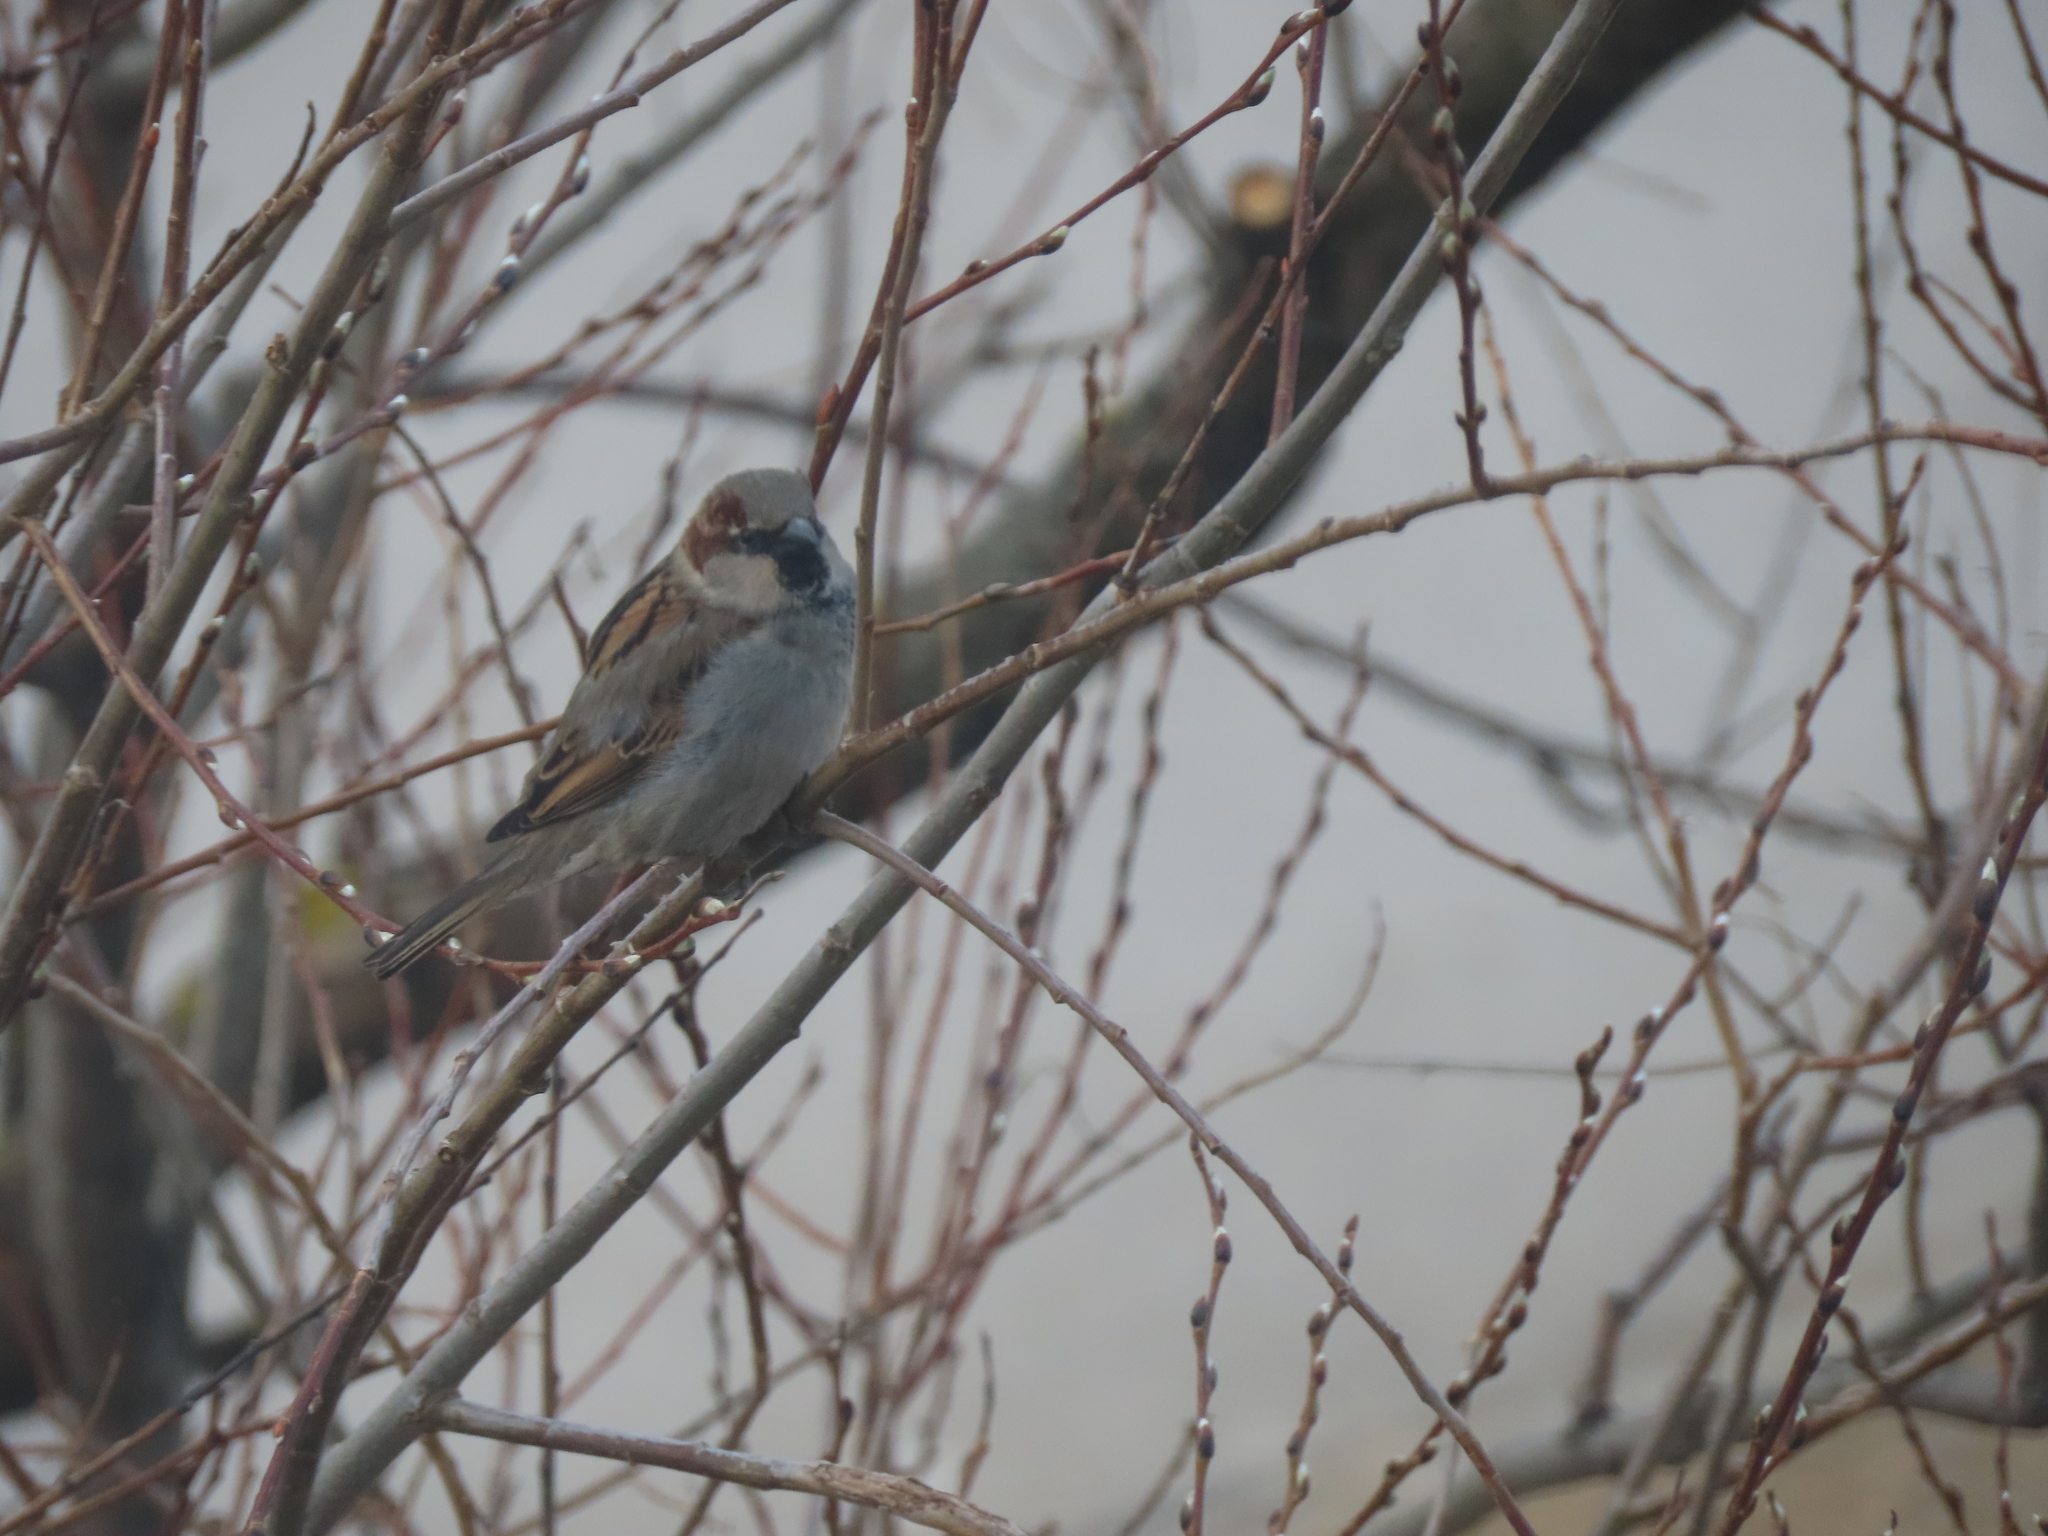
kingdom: Animalia
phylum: Chordata
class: Aves
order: Passeriformes
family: Passeridae
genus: Passer
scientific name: Passer domesticus
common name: House sparrow
